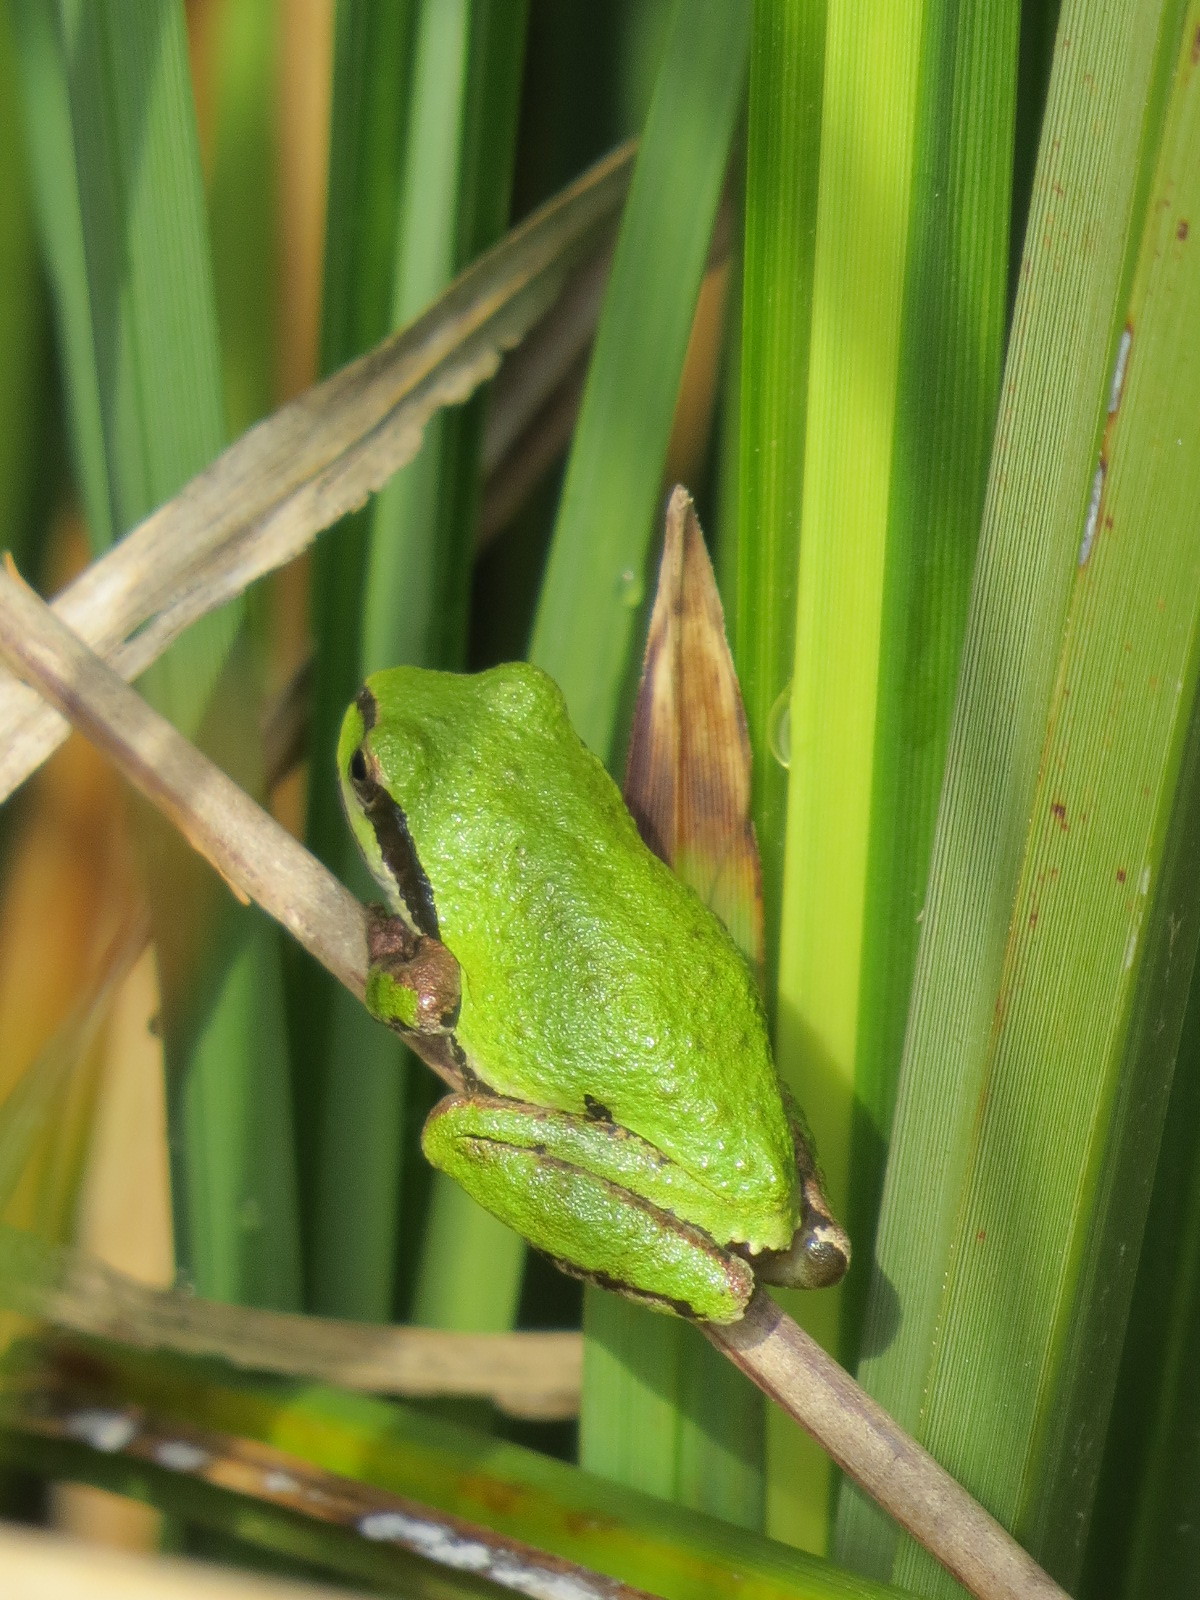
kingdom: Animalia
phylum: Chordata
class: Amphibia
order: Anura
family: Hylidae
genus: Pseudacris
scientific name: Pseudacris regilla
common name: Pacific chorus frog
